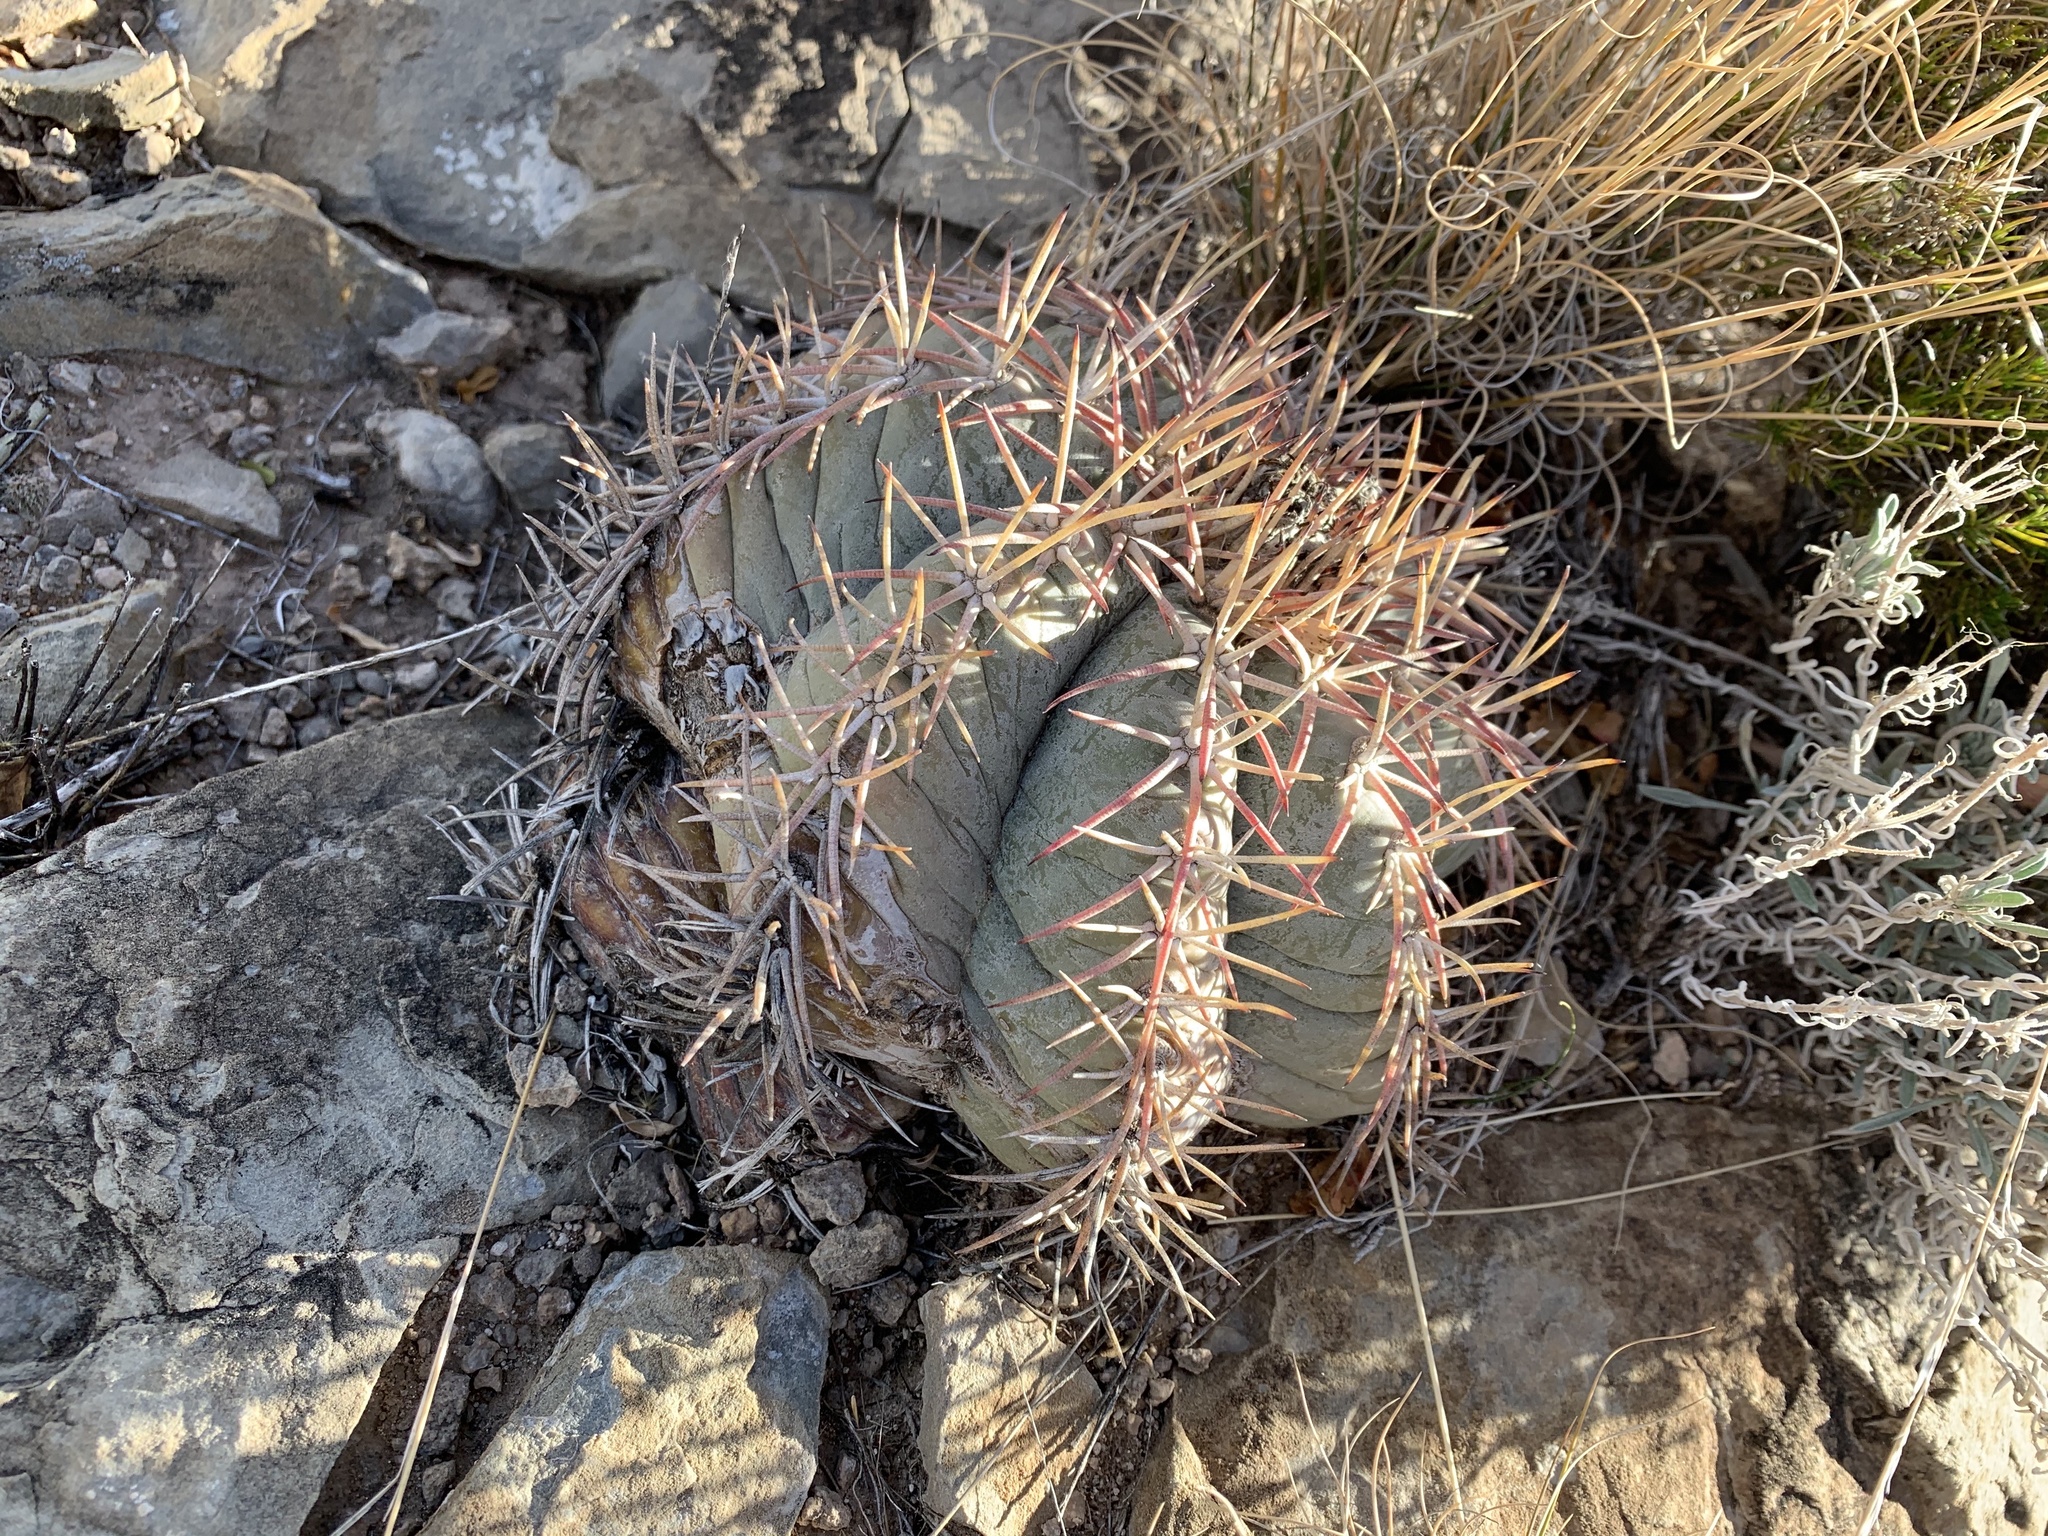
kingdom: Plantae
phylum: Tracheophyta
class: Magnoliopsida
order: Caryophyllales
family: Cactaceae
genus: Echinocactus
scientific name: Echinocactus horizonthalonius
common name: Devilshead
